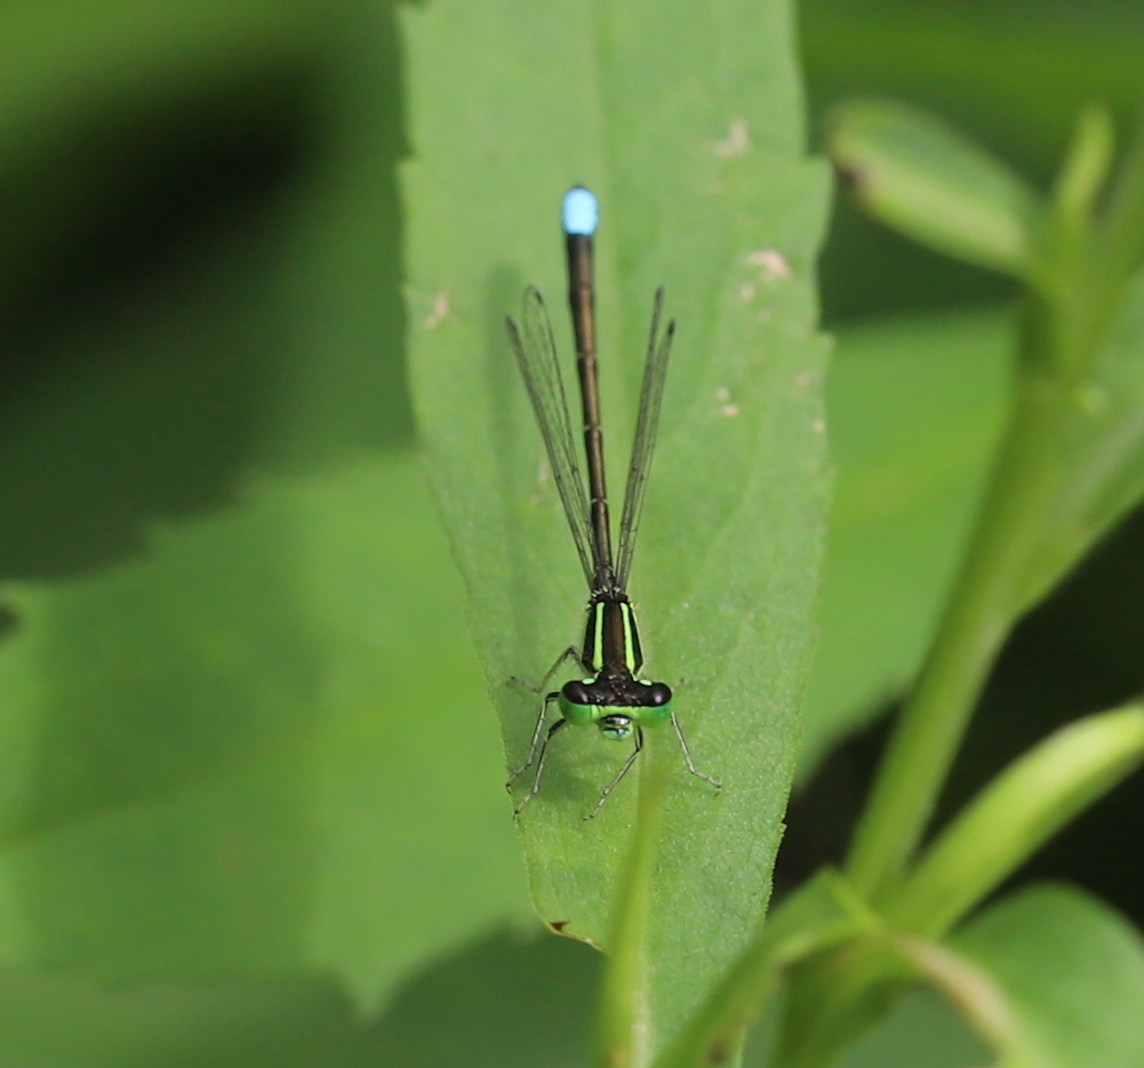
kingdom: Animalia
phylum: Arthropoda
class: Insecta
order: Odonata
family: Coenagrionidae
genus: Ischnura
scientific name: Ischnura verticalis
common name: Eastern forktail
